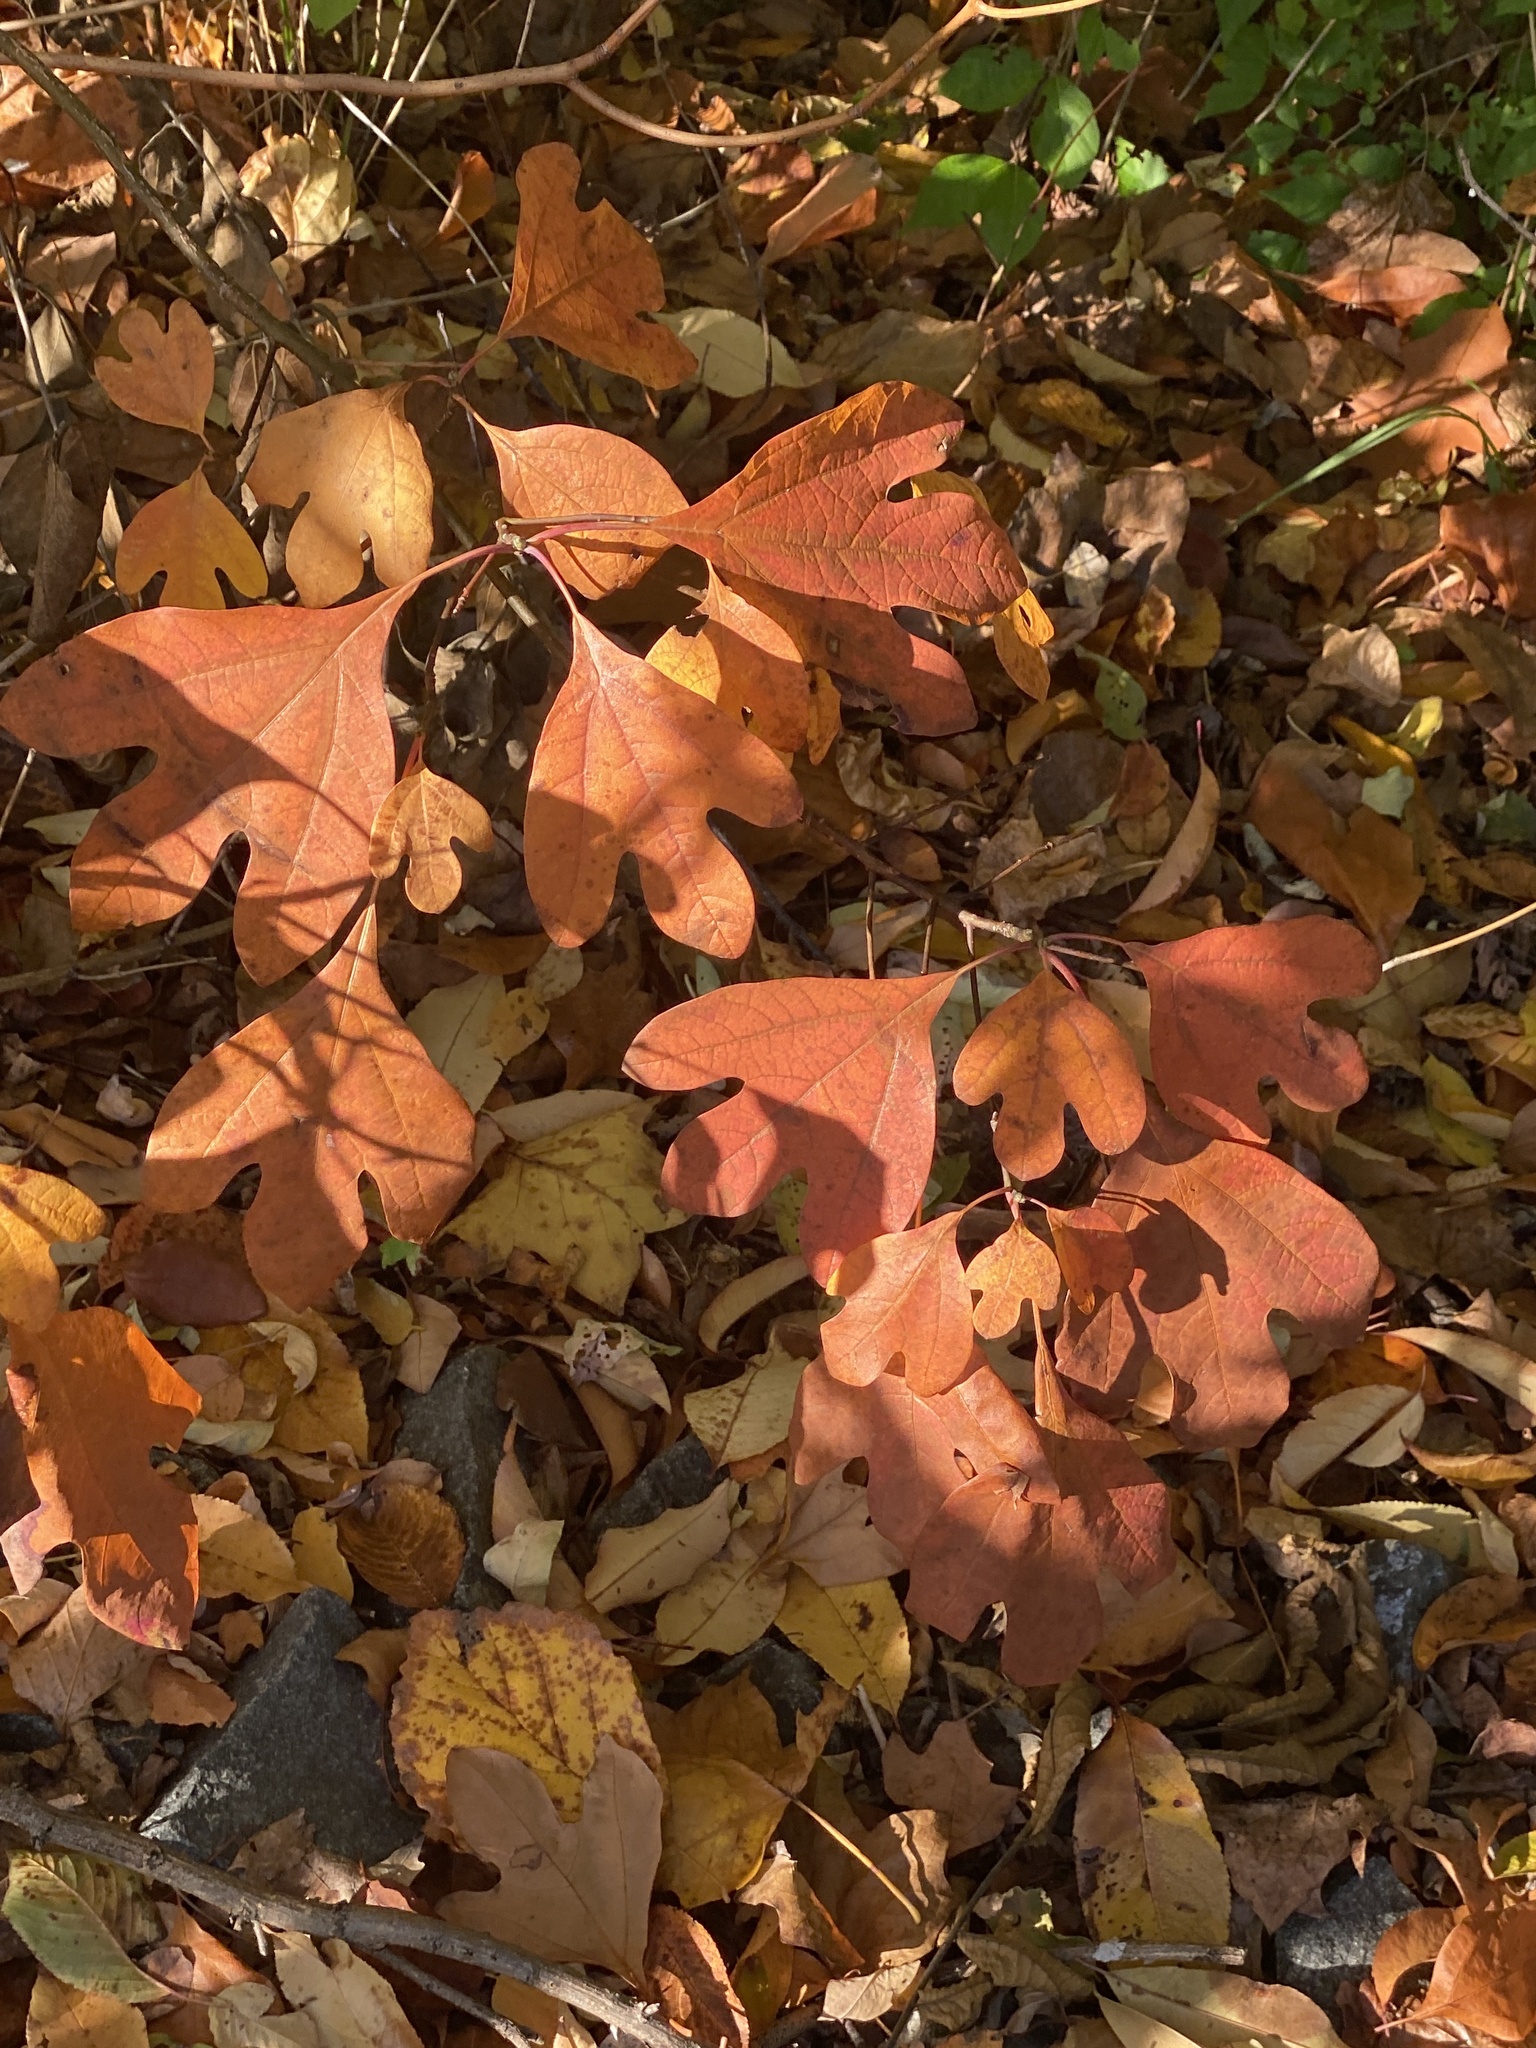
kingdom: Plantae
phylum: Tracheophyta
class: Magnoliopsida
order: Laurales
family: Lauraceae
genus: Sassafras
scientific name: Sassafras albidum
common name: Sassafras
